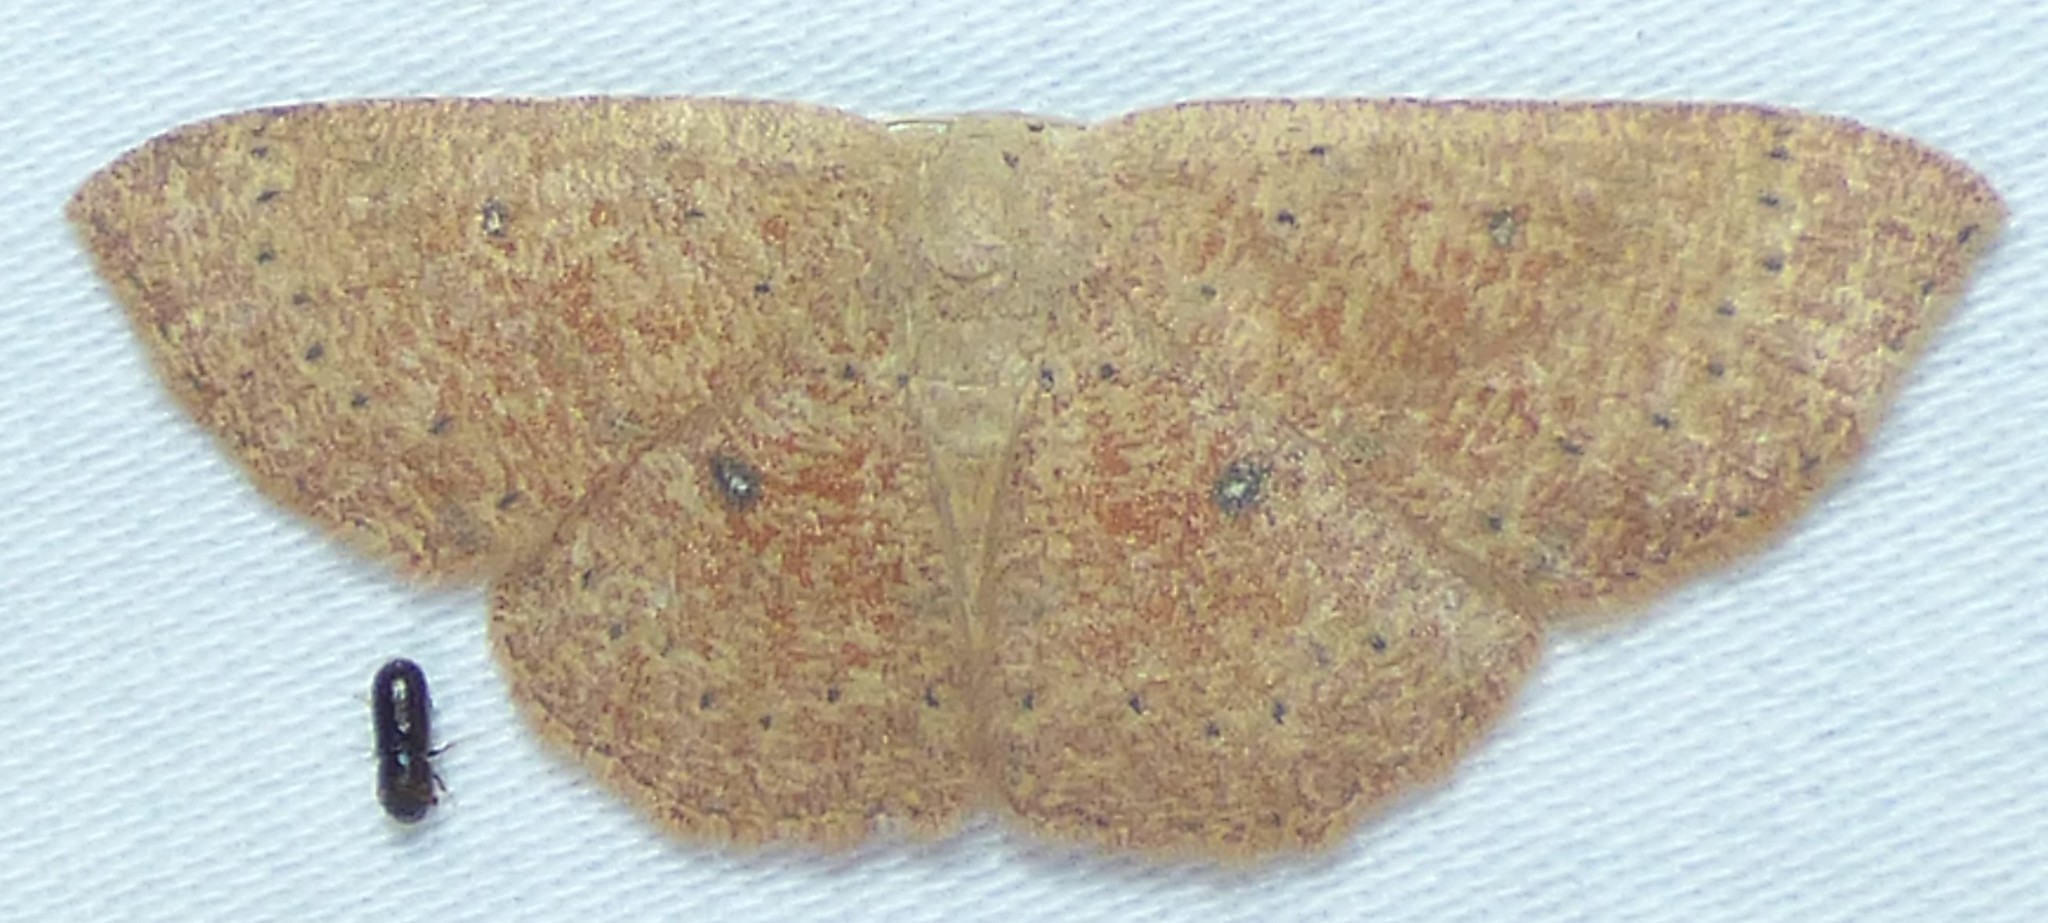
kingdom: Animalia
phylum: Arthropoda
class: Insecta
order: Lepidoptera
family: Geometridae
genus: Cyclophora
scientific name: Cyclophora packardi
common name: Packard's wave
